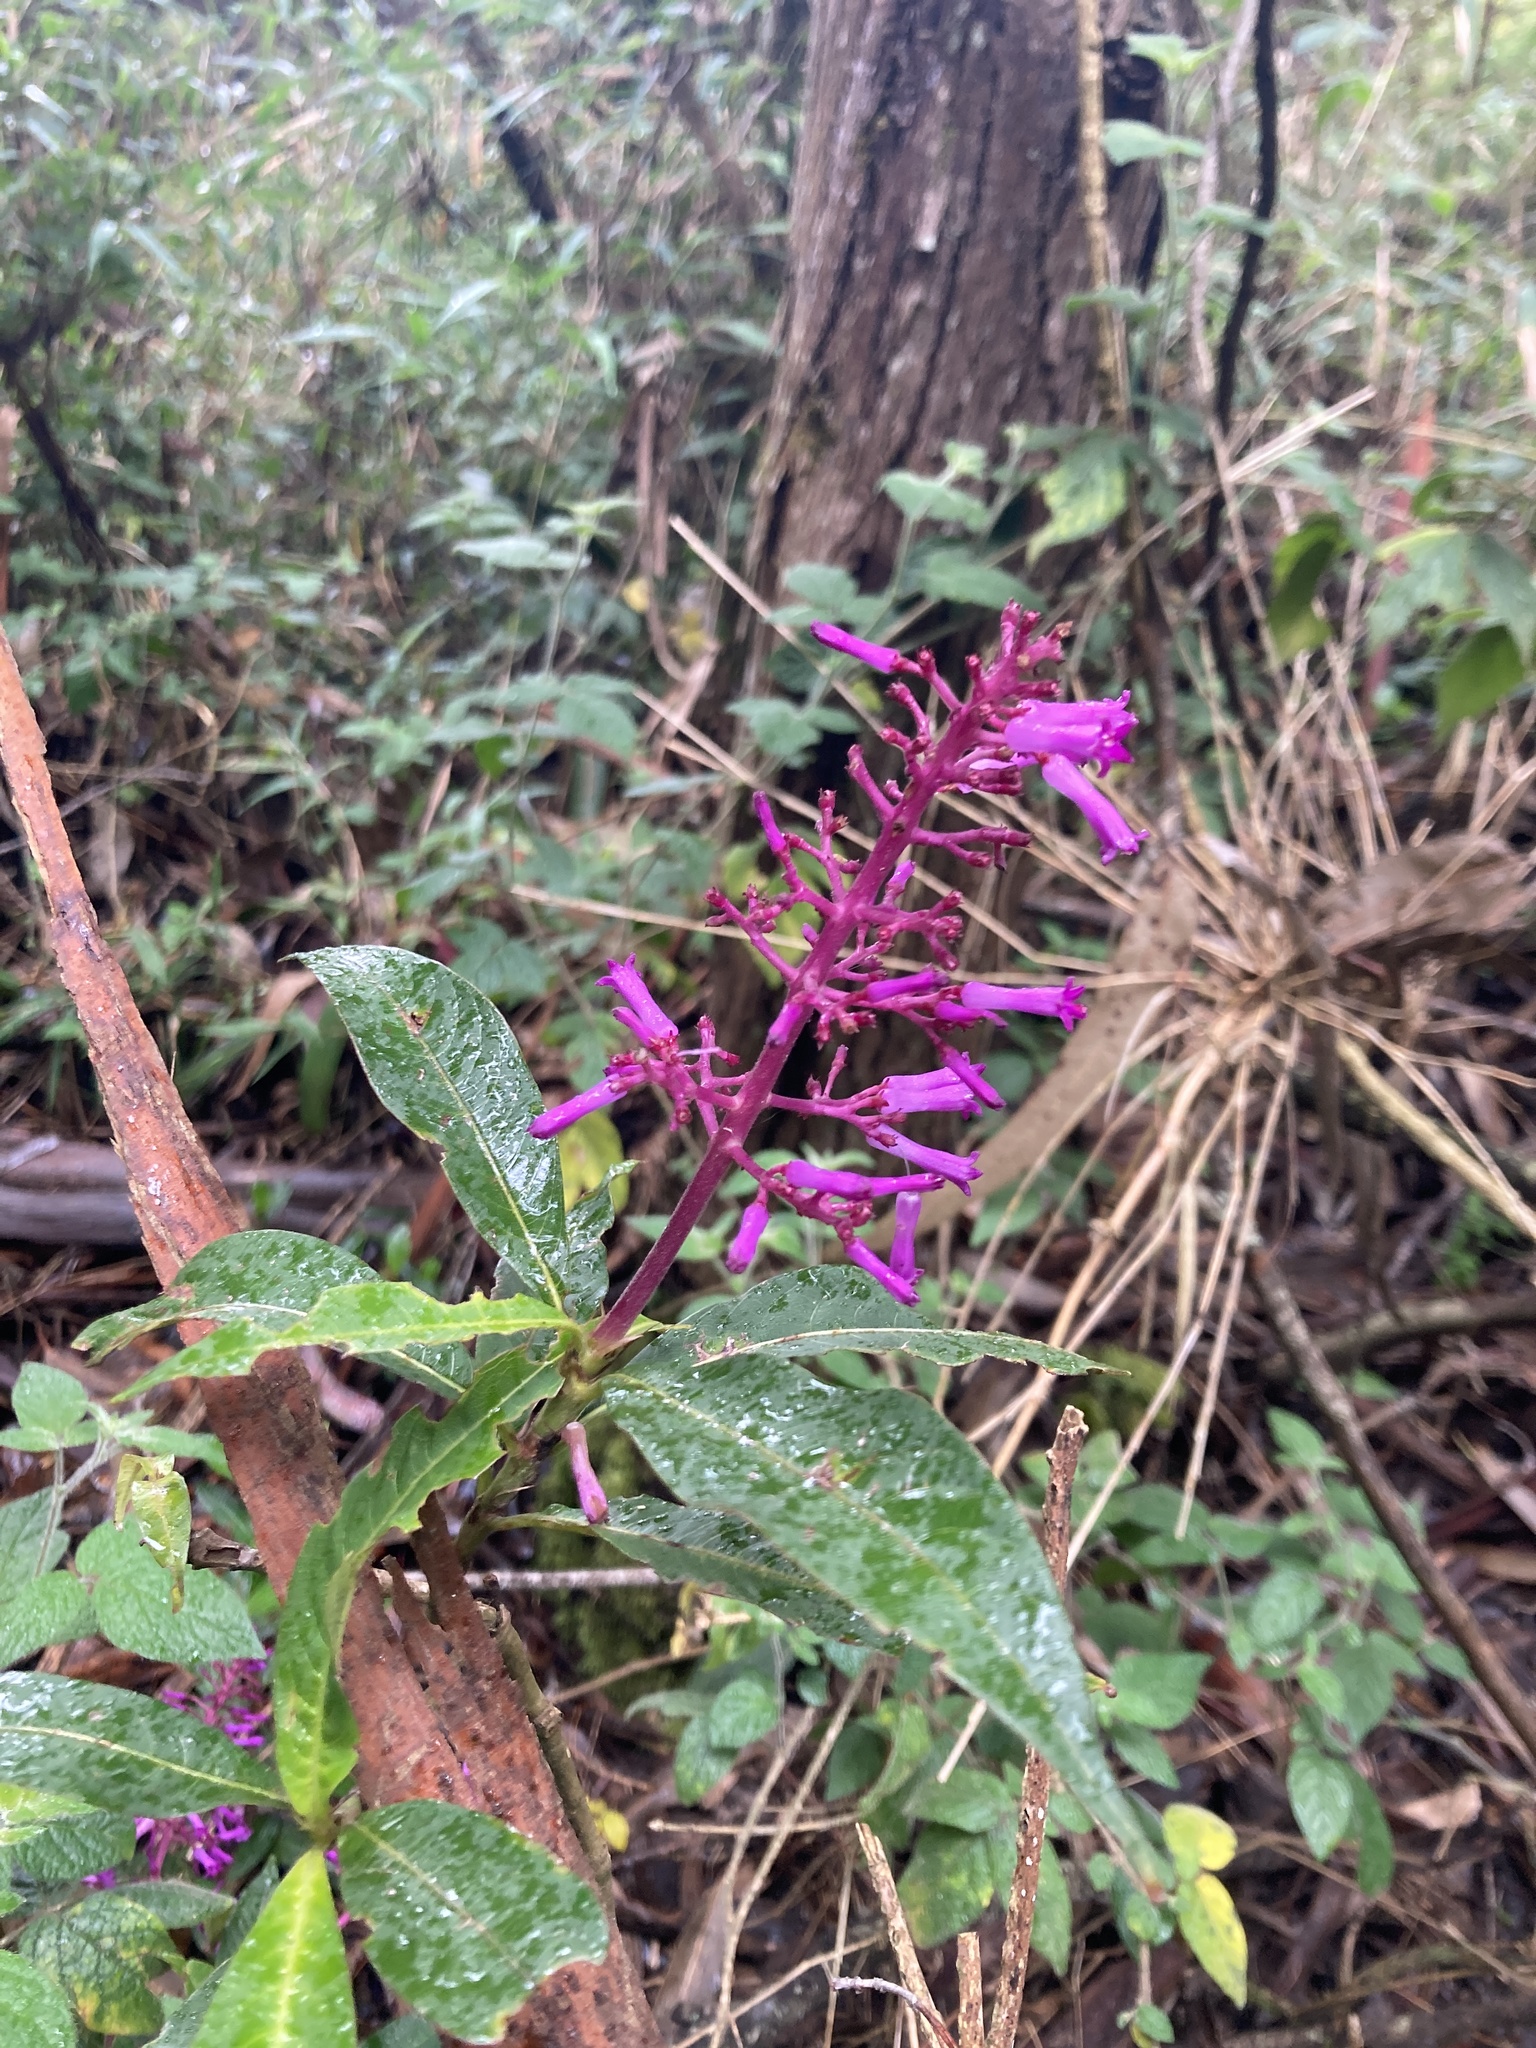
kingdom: Plantae
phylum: Tracheophyta
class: Magnoliopsida
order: Gentianales
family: Rubiaceae
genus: Palicourea
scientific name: Palicourea angustifolia
